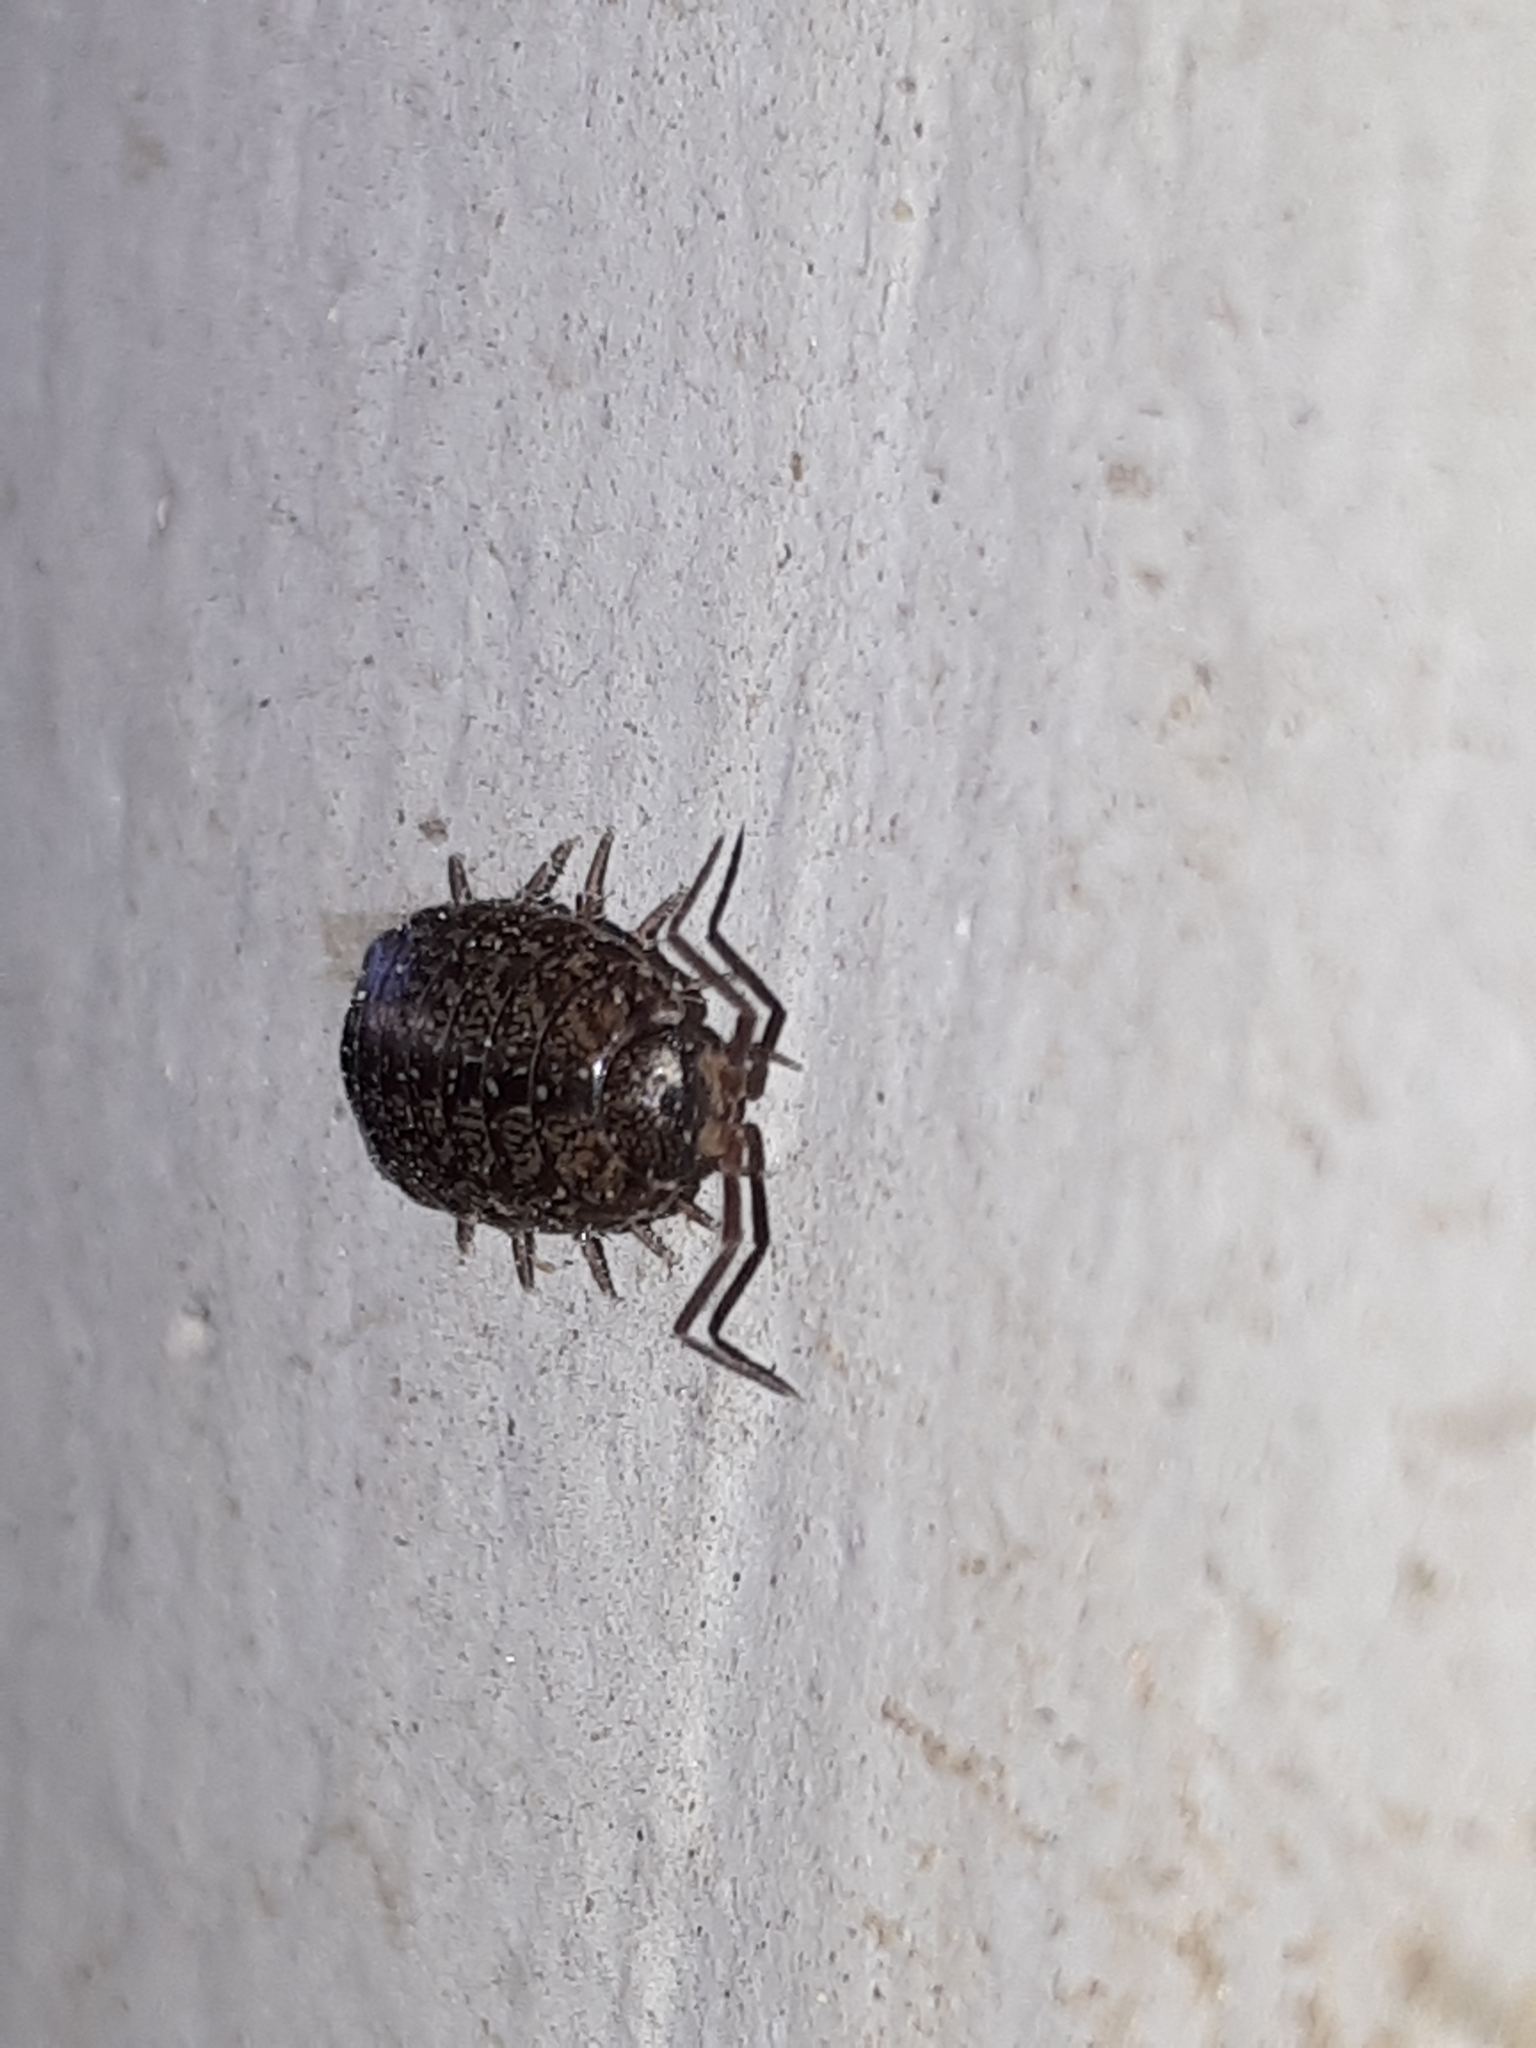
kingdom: Animalia
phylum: Arthropoda
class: Malacostraca
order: Isopoda
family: Philosciidae
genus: Philoscia
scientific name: Philoscia affinis
